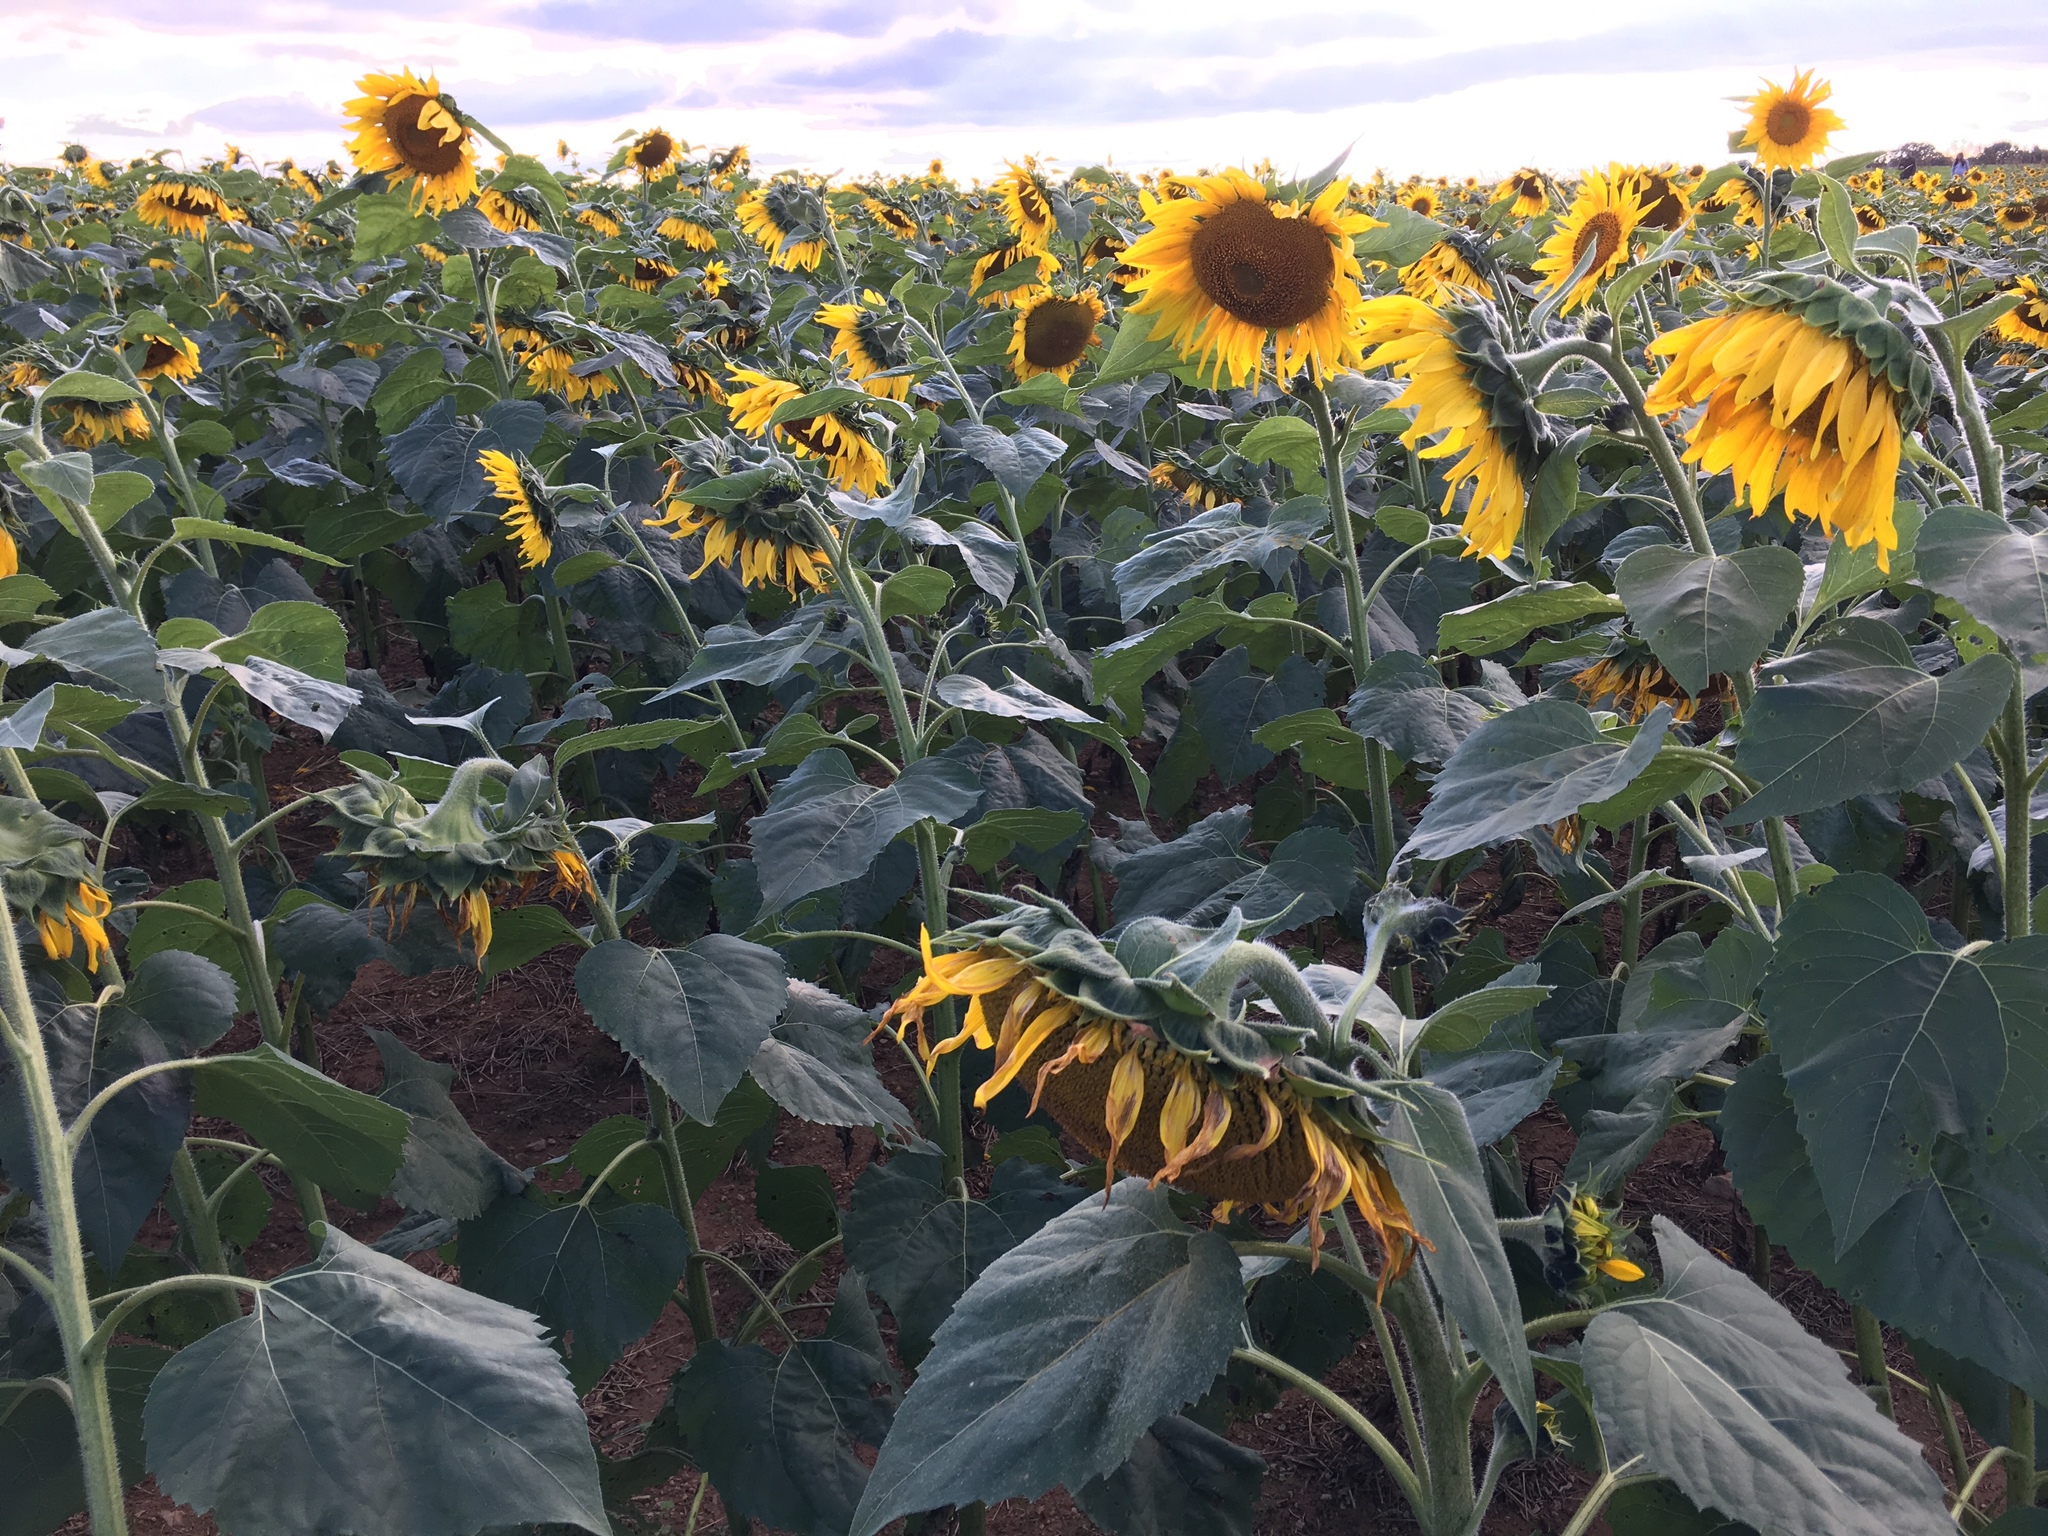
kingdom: Plantae
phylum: Tracheophyta
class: Magnoliopsida
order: Asterales
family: Asteraceae
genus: Helianthus
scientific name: Helianthus annuus
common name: Sunflower
